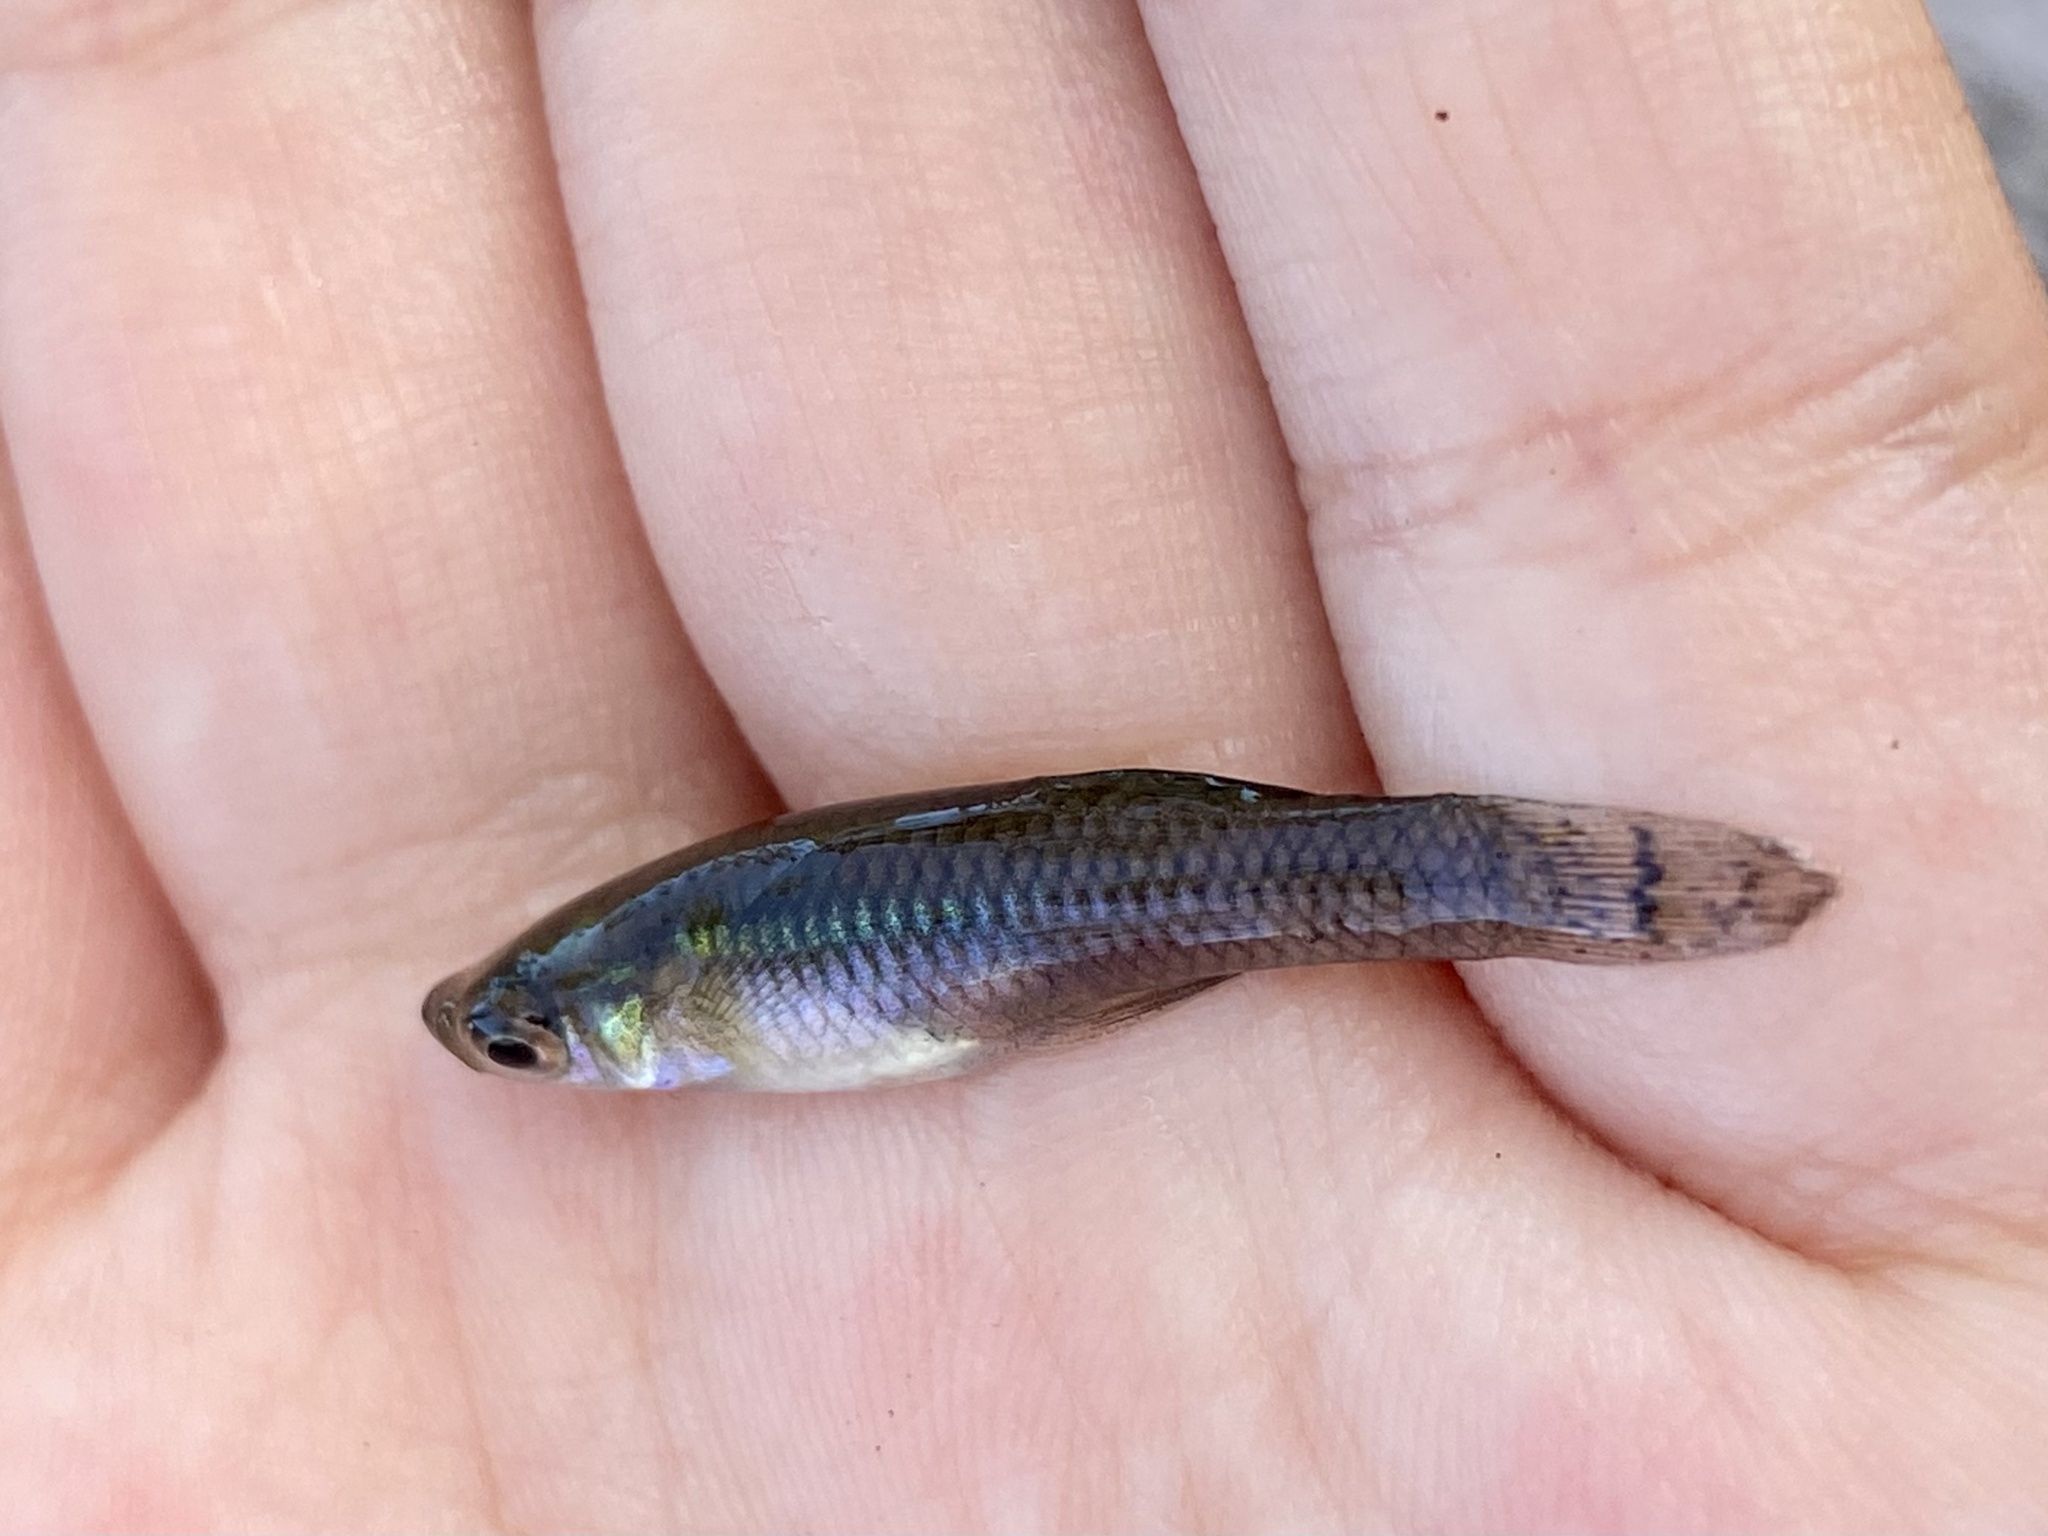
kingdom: Animalia
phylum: Chordata
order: Cyprinodontiformes
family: Poeciliidae
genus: Gambusia
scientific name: Gambusia holbrooki
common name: Eastern mosquitofish
